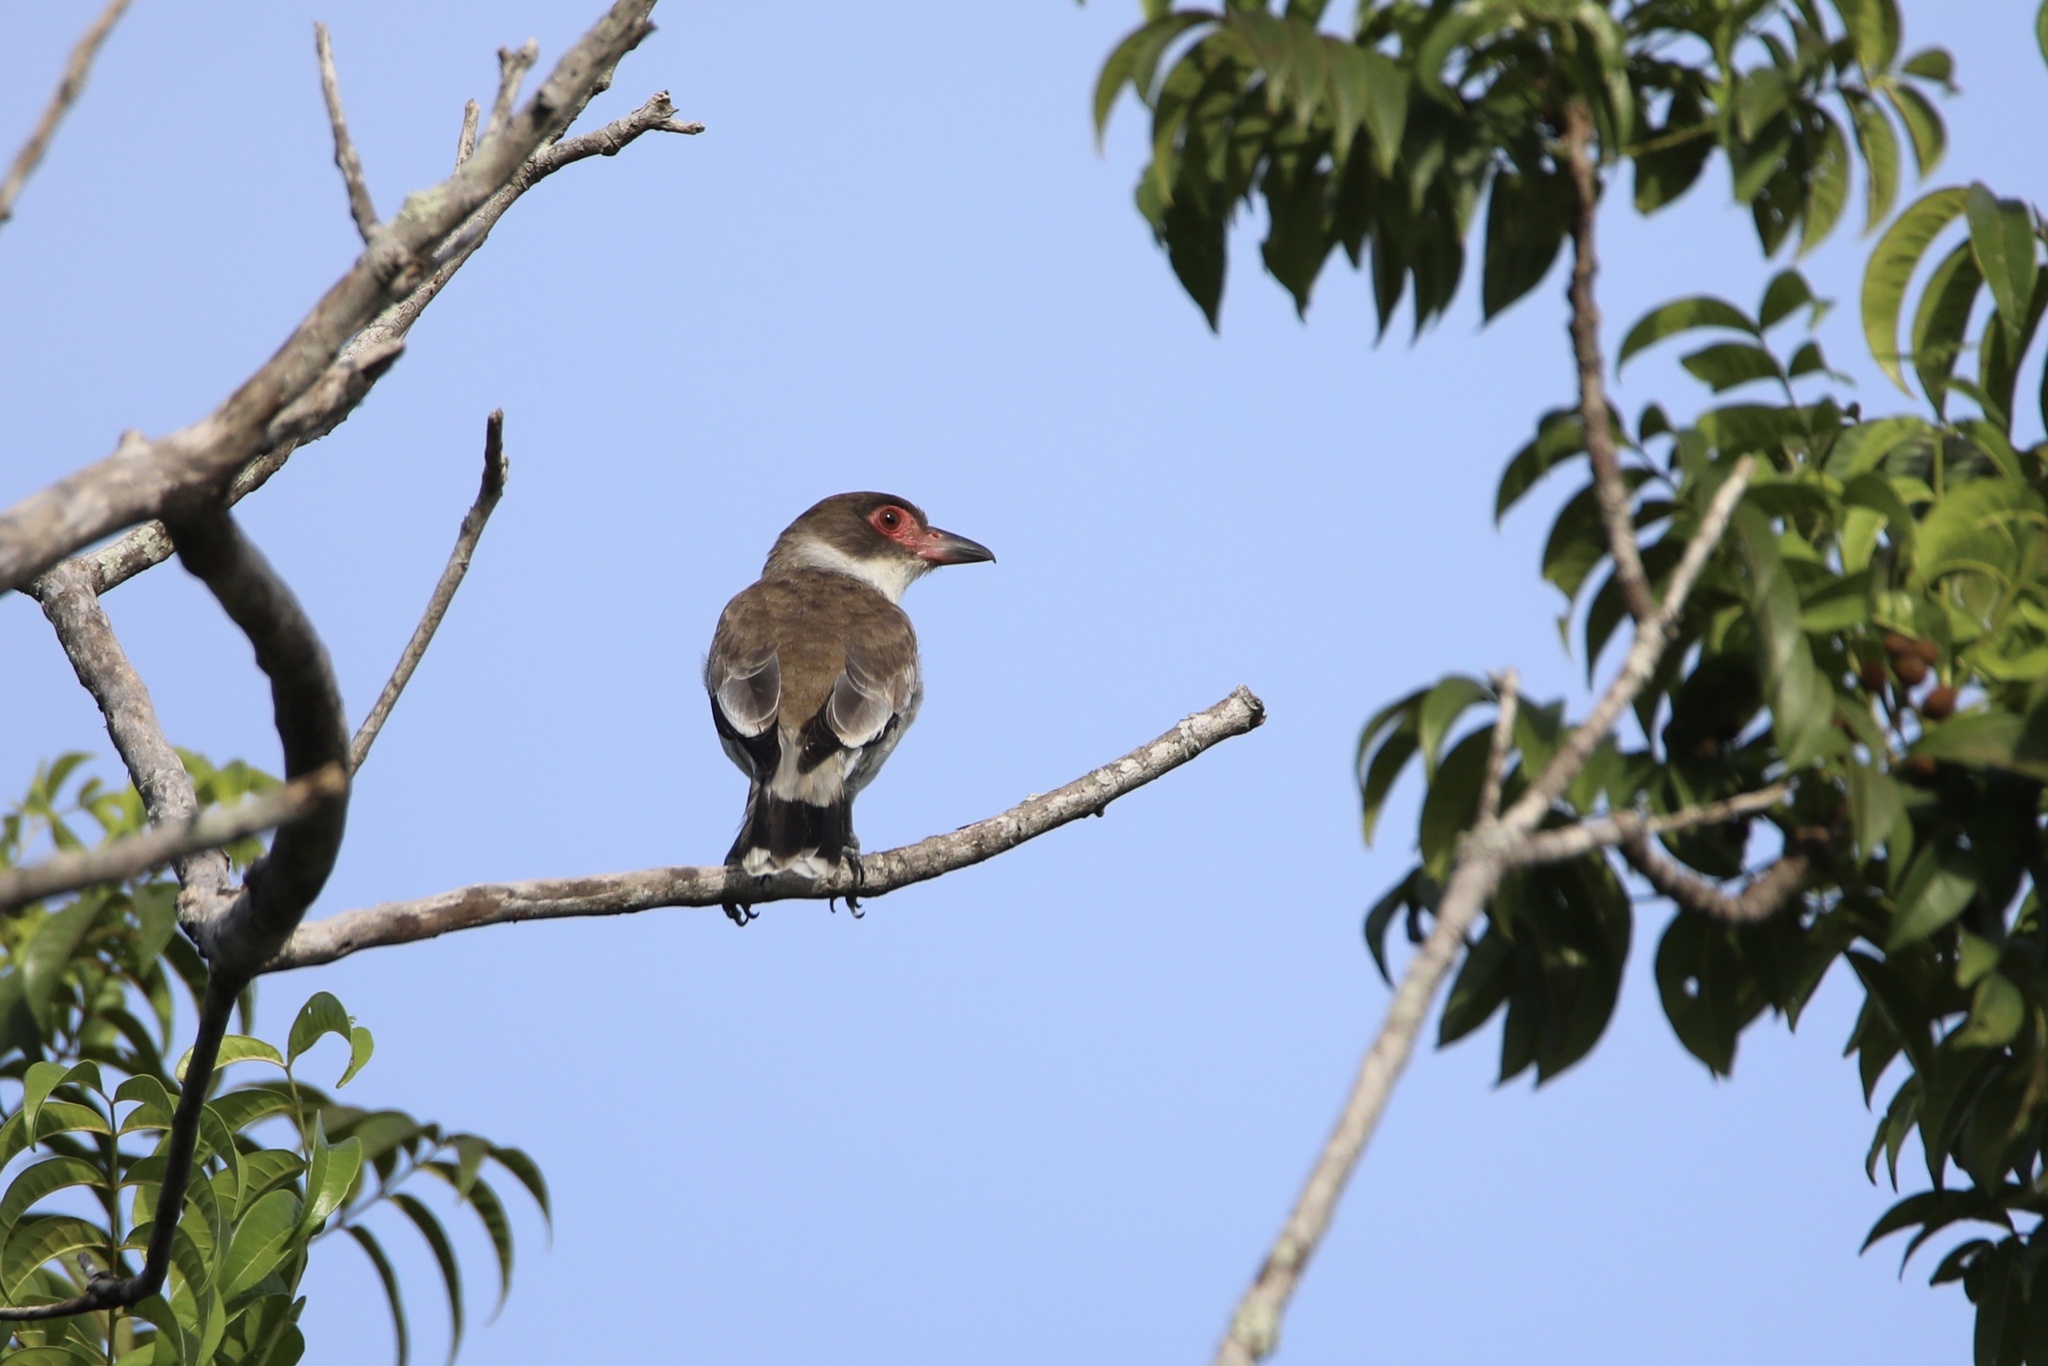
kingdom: Animalia
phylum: Chordata
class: Aves
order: Passeriformes
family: Cotingidae
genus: Tityra
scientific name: Tityra semifasciata
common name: Masked tityra
